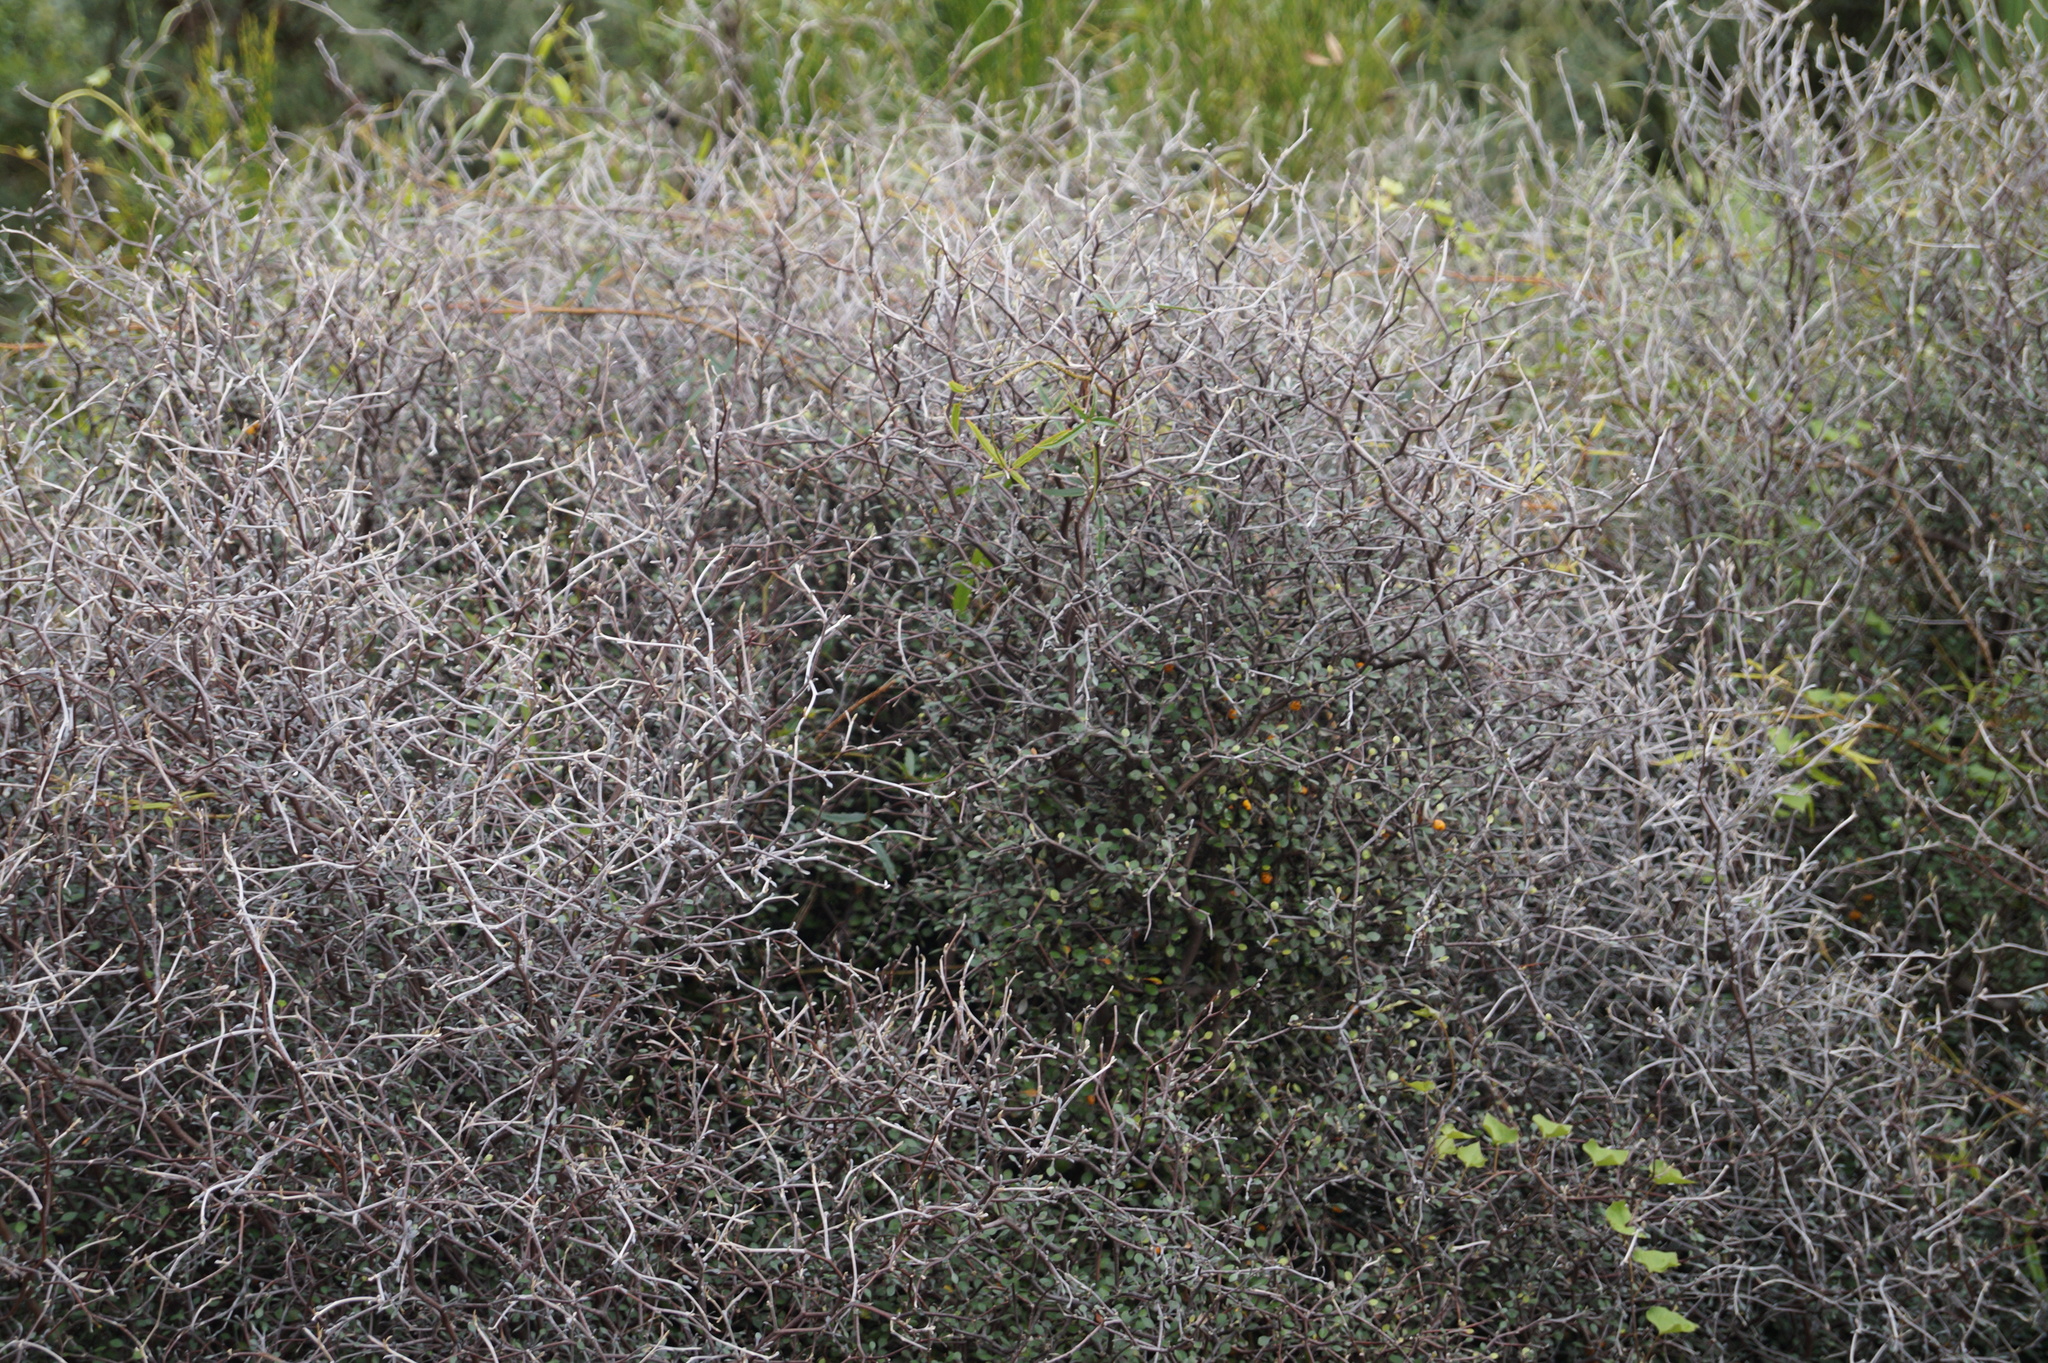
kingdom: Plantae
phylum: Tracheophyta
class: Magnoliopsida
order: Asterales
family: Argophyllaceae
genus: Corokia
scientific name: Corokia cotoneaster
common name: Wire nettingbush
